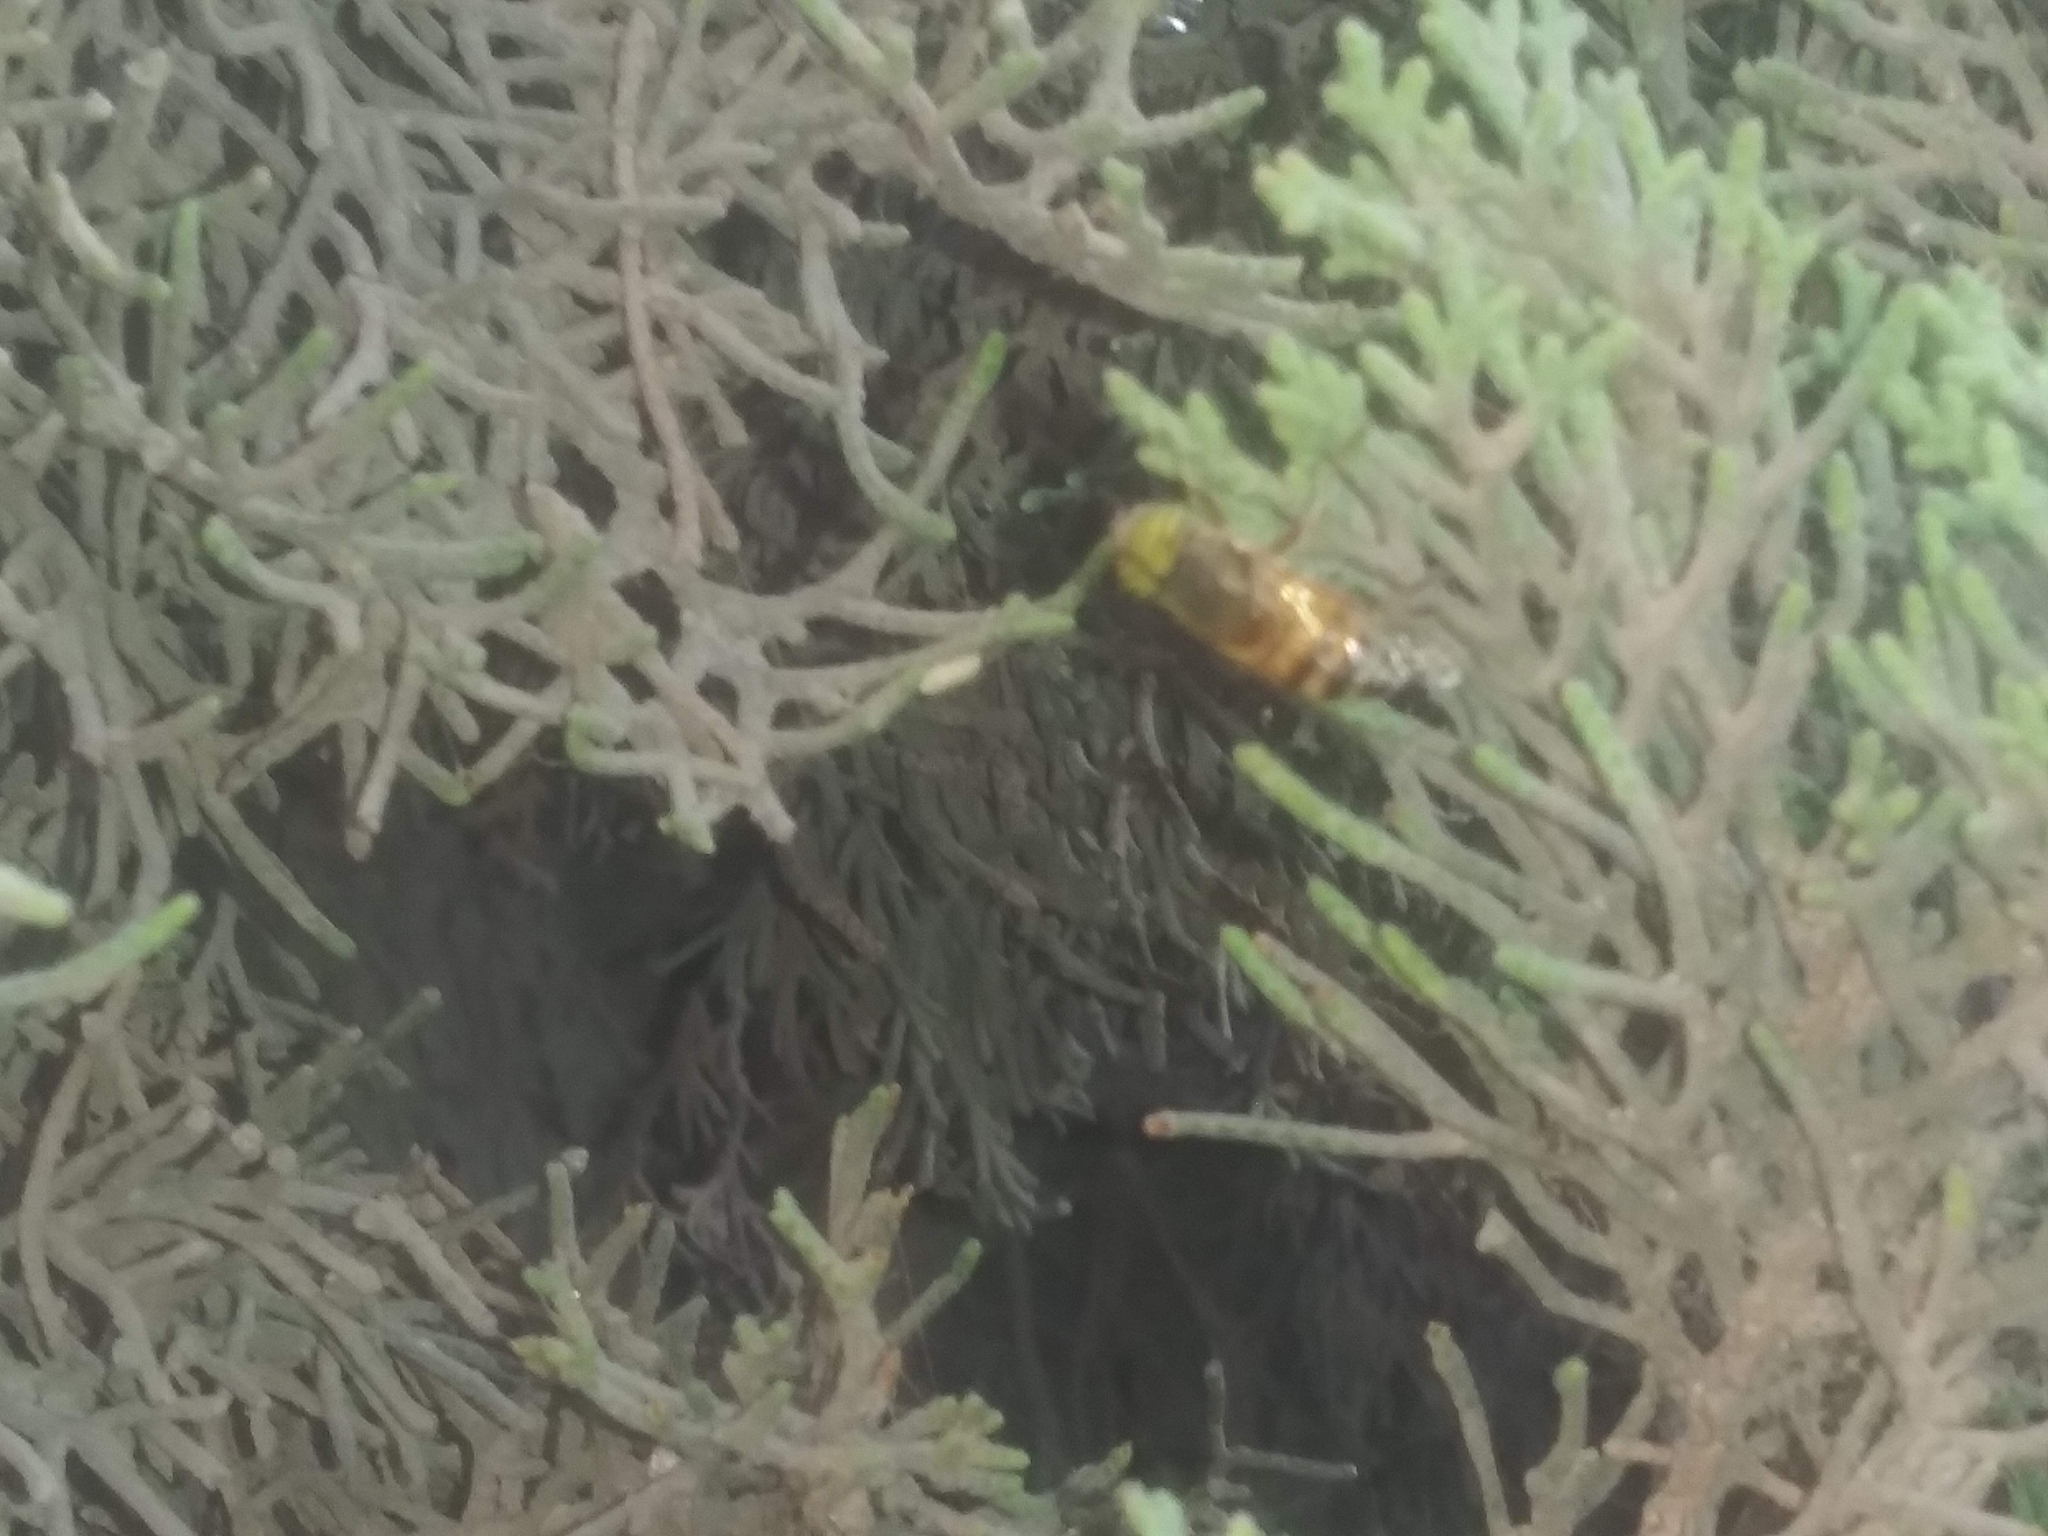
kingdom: Animalia
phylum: Arthropoda
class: Insecta
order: Diptera
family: Syrphidae
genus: Eristalinus
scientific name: Eristalinus taeniops
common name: Syrphid fly
